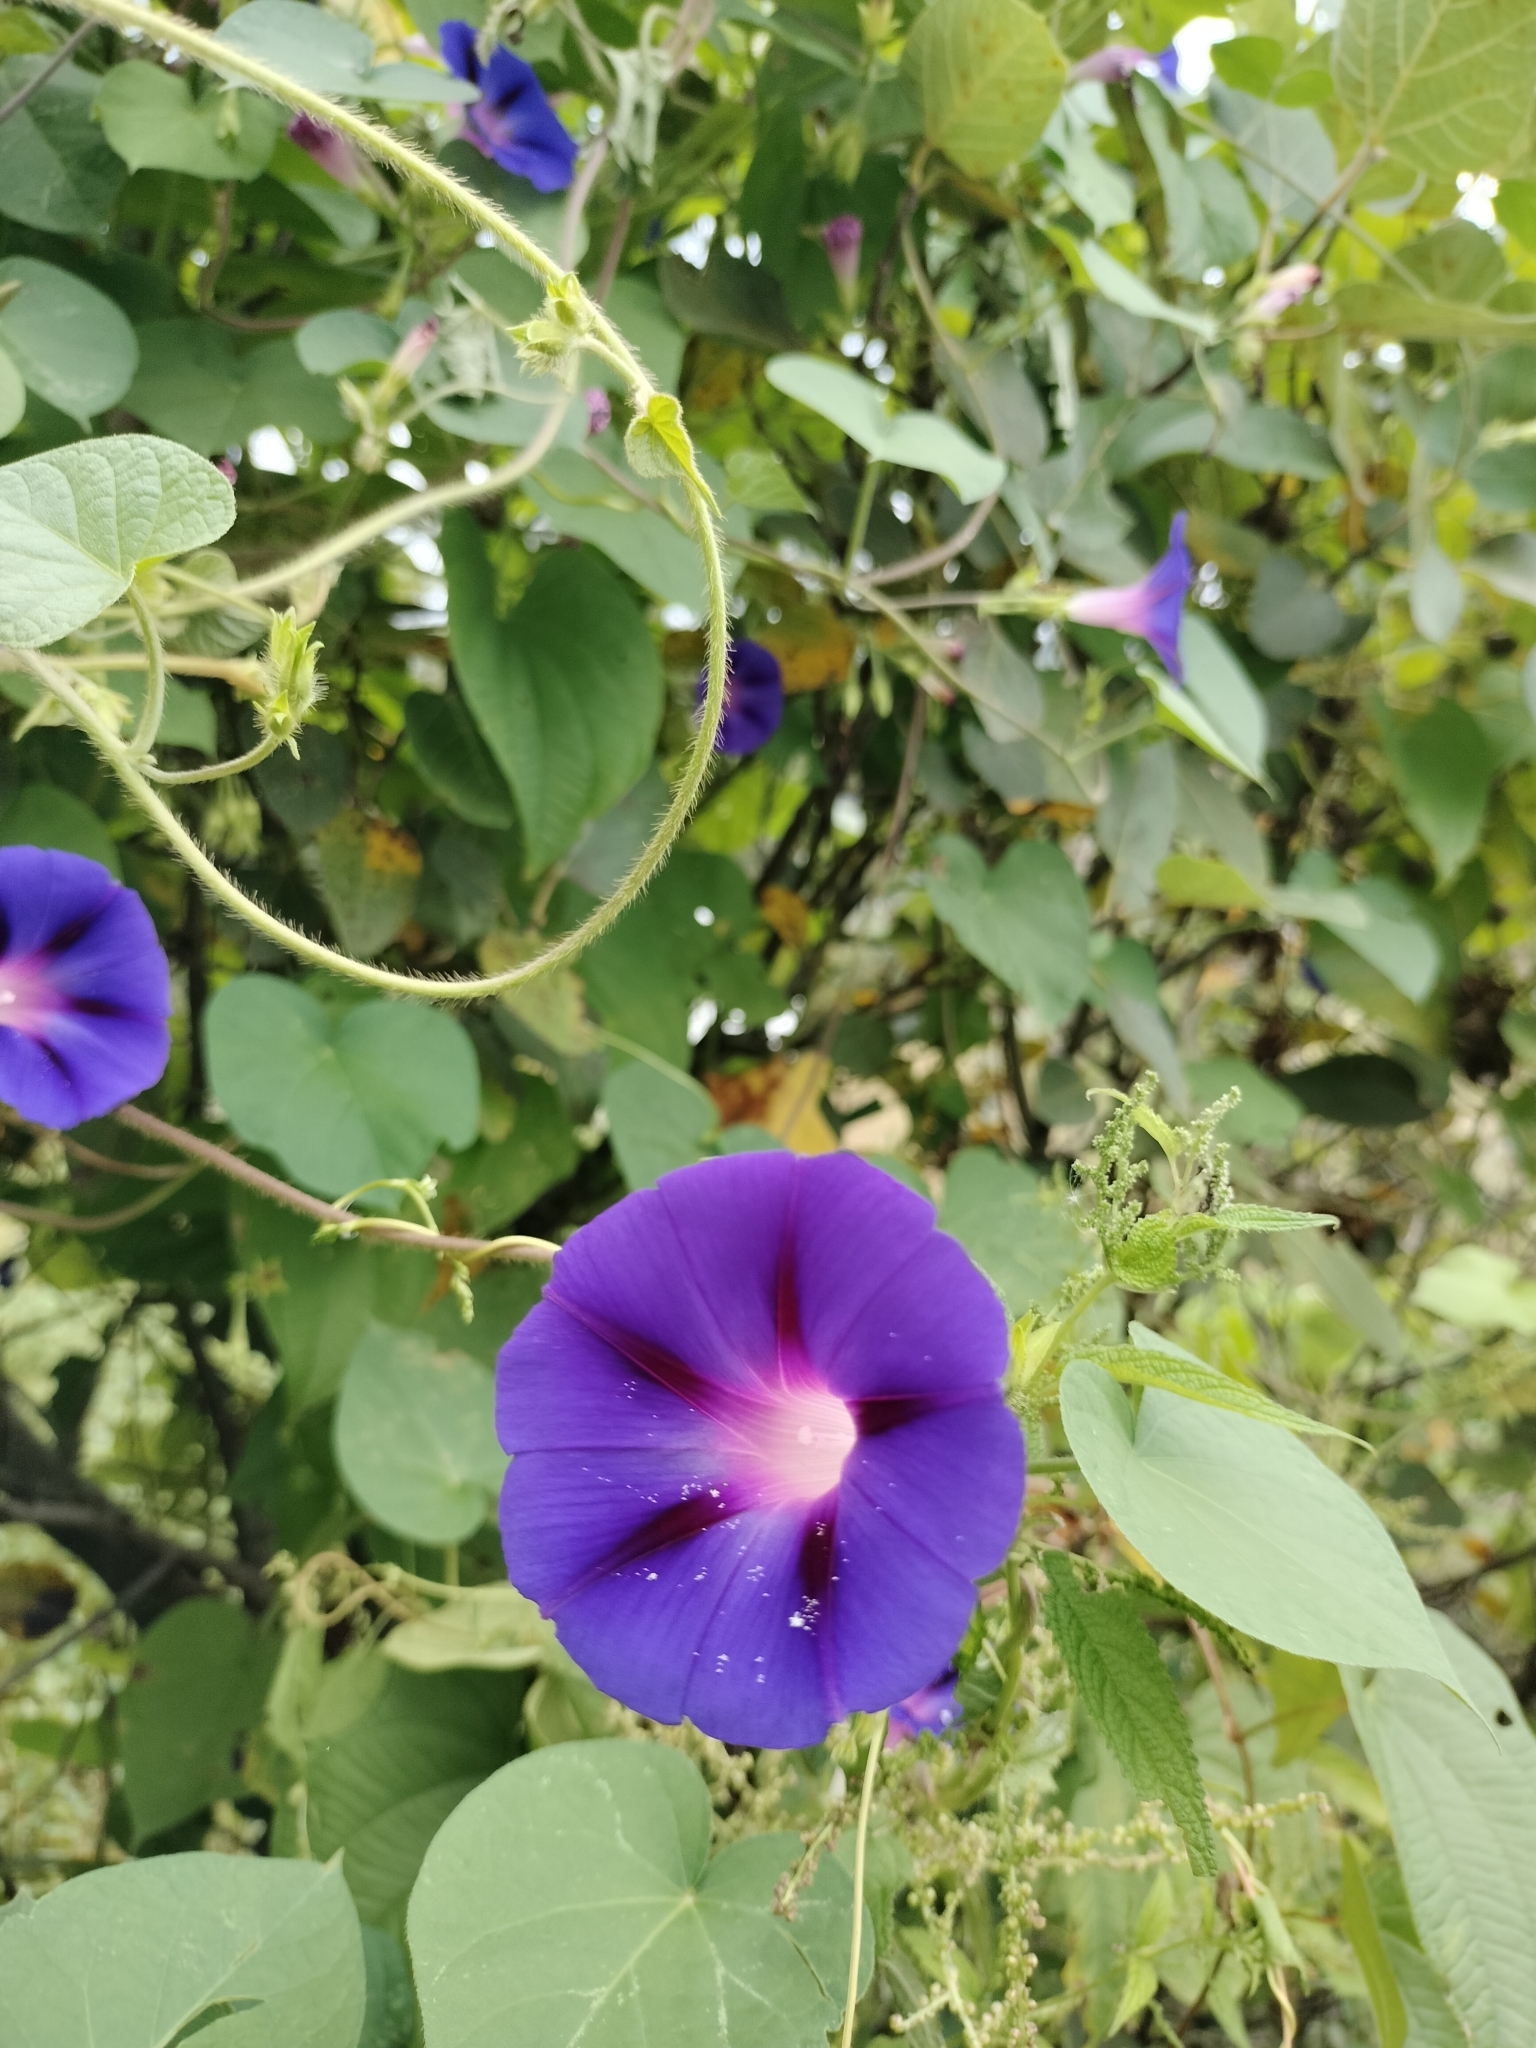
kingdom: Plantae
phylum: Tracheophyta
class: Magnoliopsida
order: Solanales
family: Convolvulaceae
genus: Ipomoea
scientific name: Ipomoea purpurea
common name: Common morning-glory
